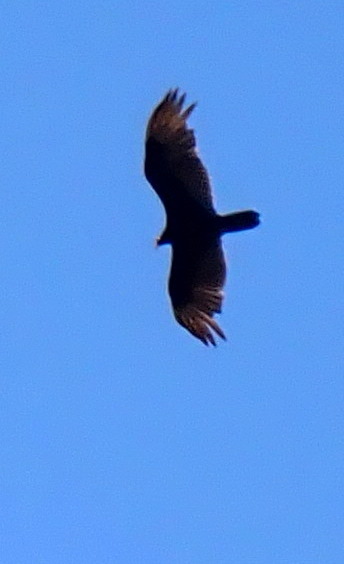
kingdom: Animalia
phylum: Chordata
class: Aves
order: Accipitriformes
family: Cathartidae
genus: Cathartes
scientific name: Cathartes aura
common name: Turkey vulture
